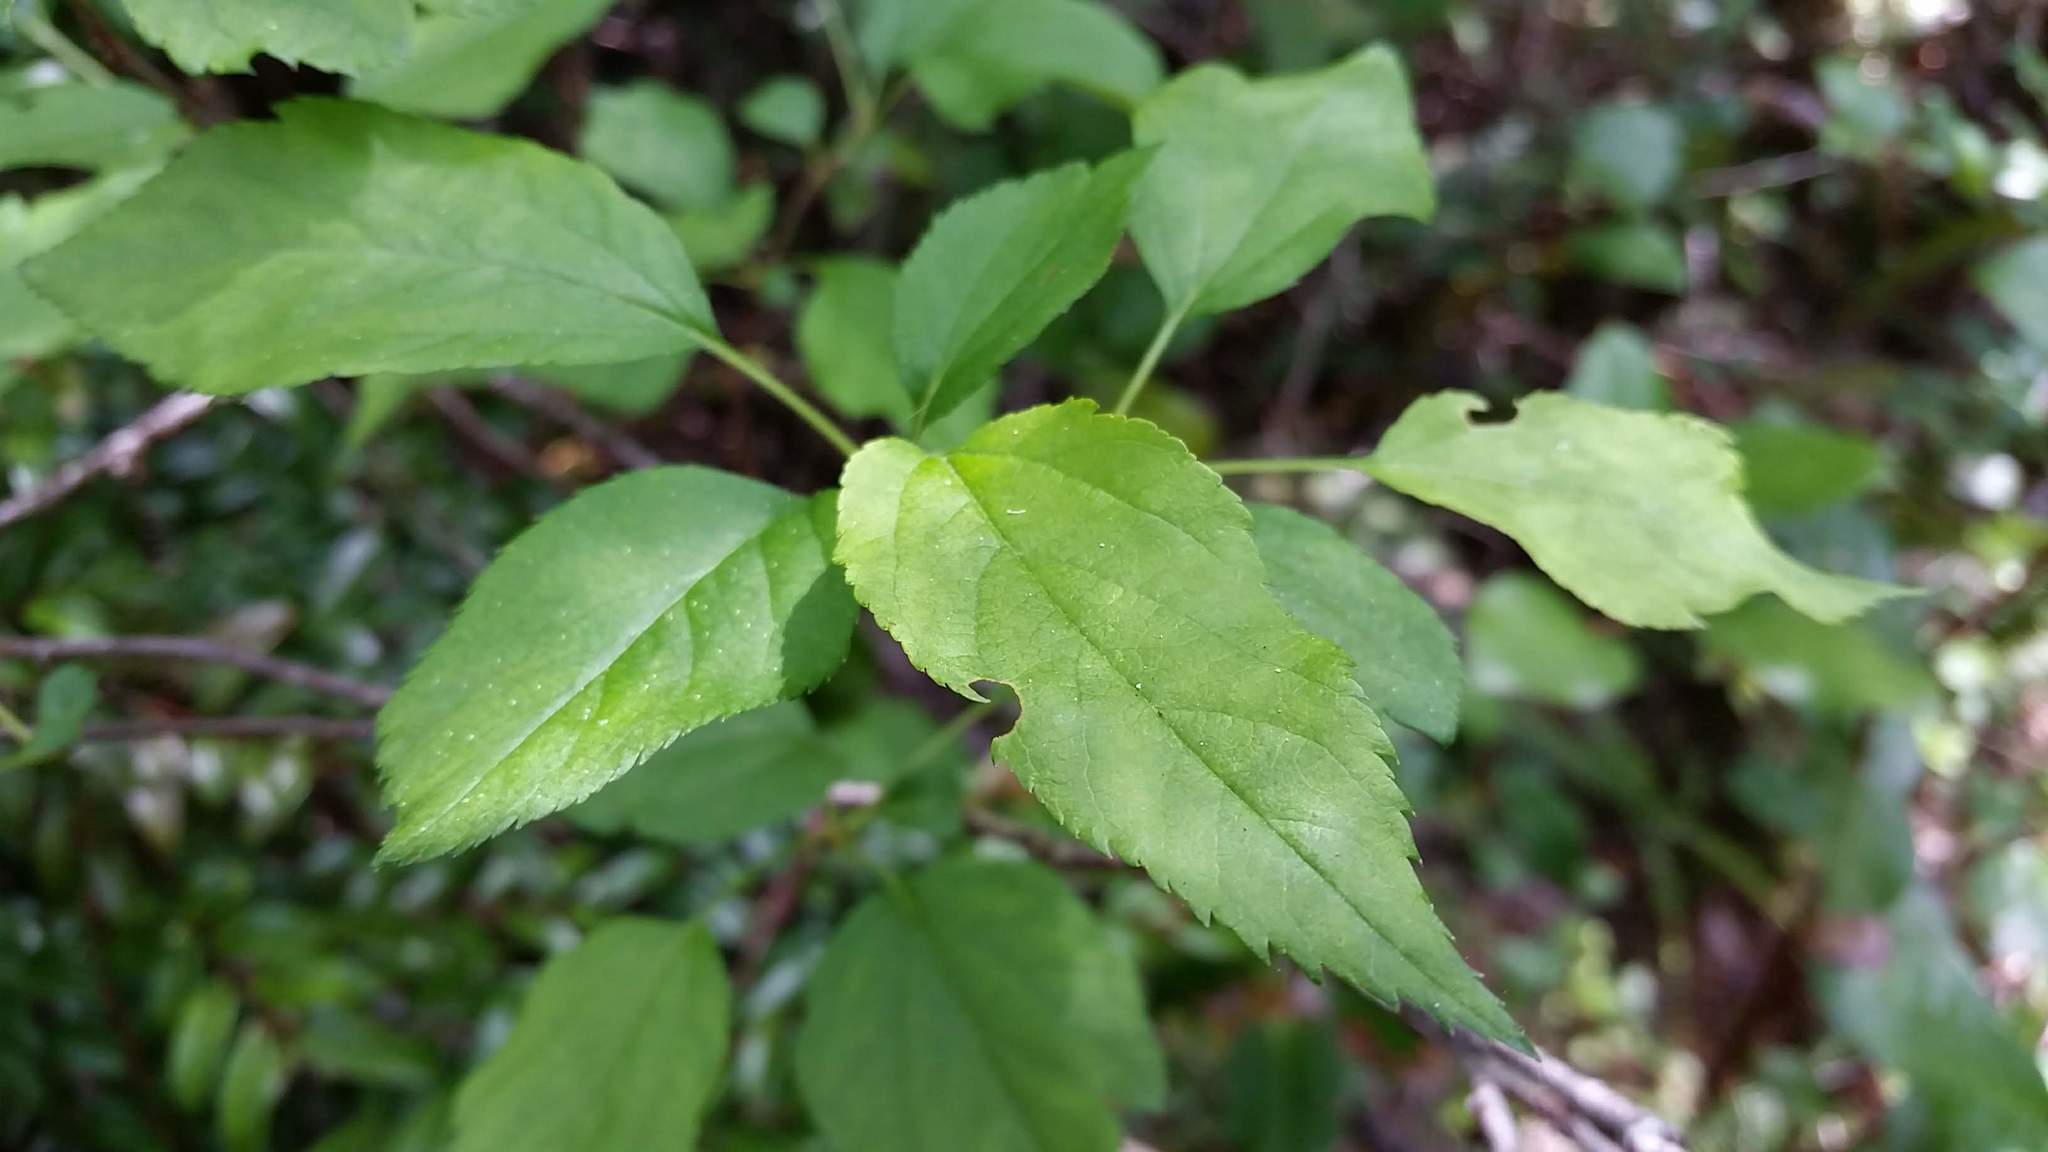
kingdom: Plantae
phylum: Tracheophyta
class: Magnoliopsida
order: Rosales
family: Rosaceae
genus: Malus
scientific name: Malus fusca
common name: Oregon crab apple
